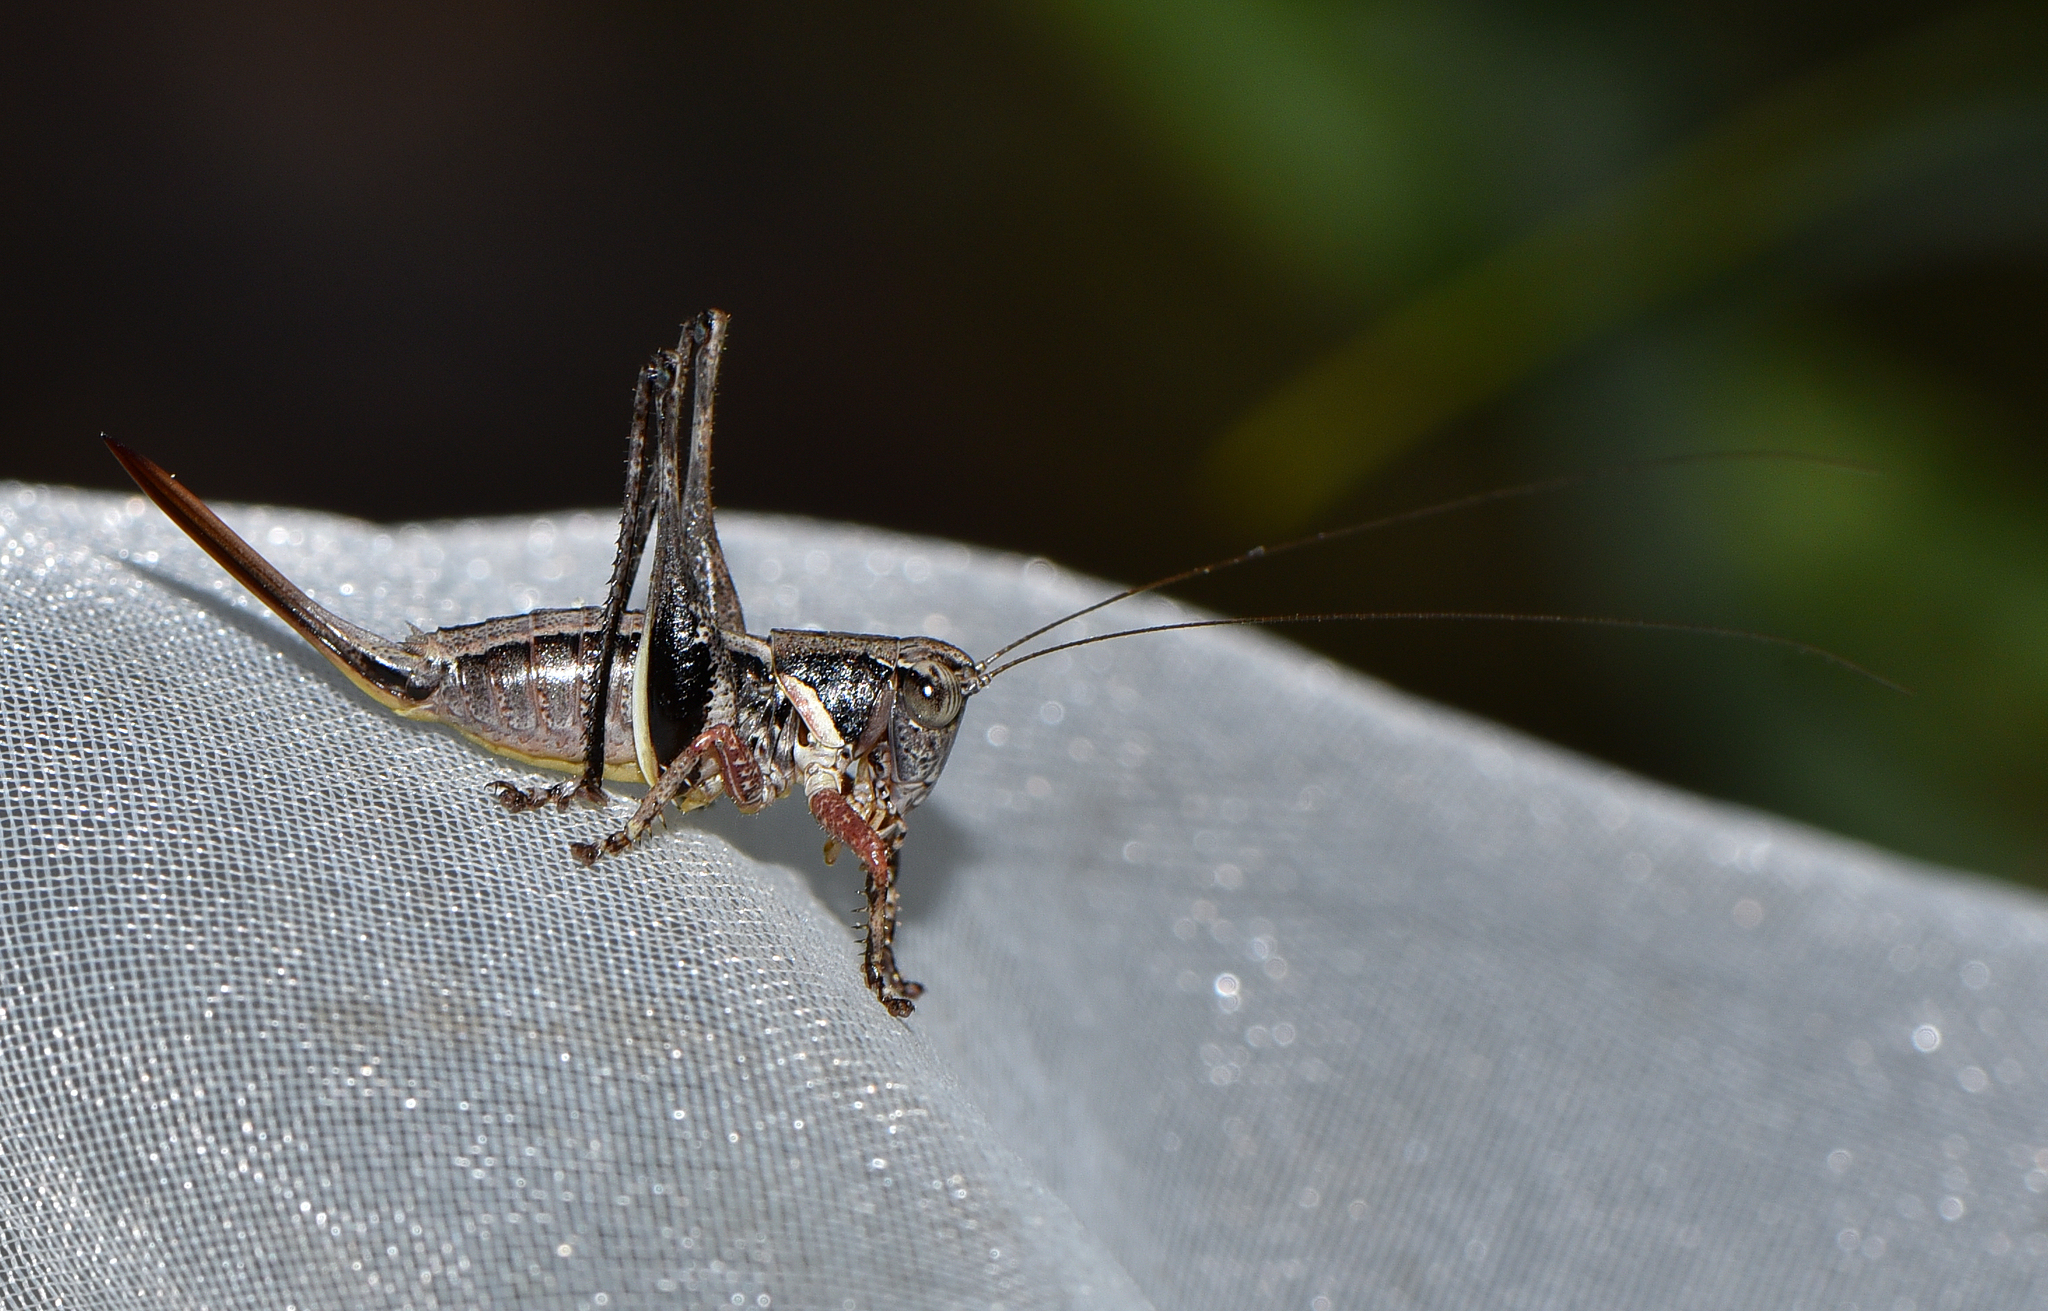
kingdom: Animalia
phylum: Arthropoda
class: Insecta
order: Orthoptera
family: Tettigoniidae
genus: Oligodectoides
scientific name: Oligodectoides tindalei
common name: Tindale's shield-back
